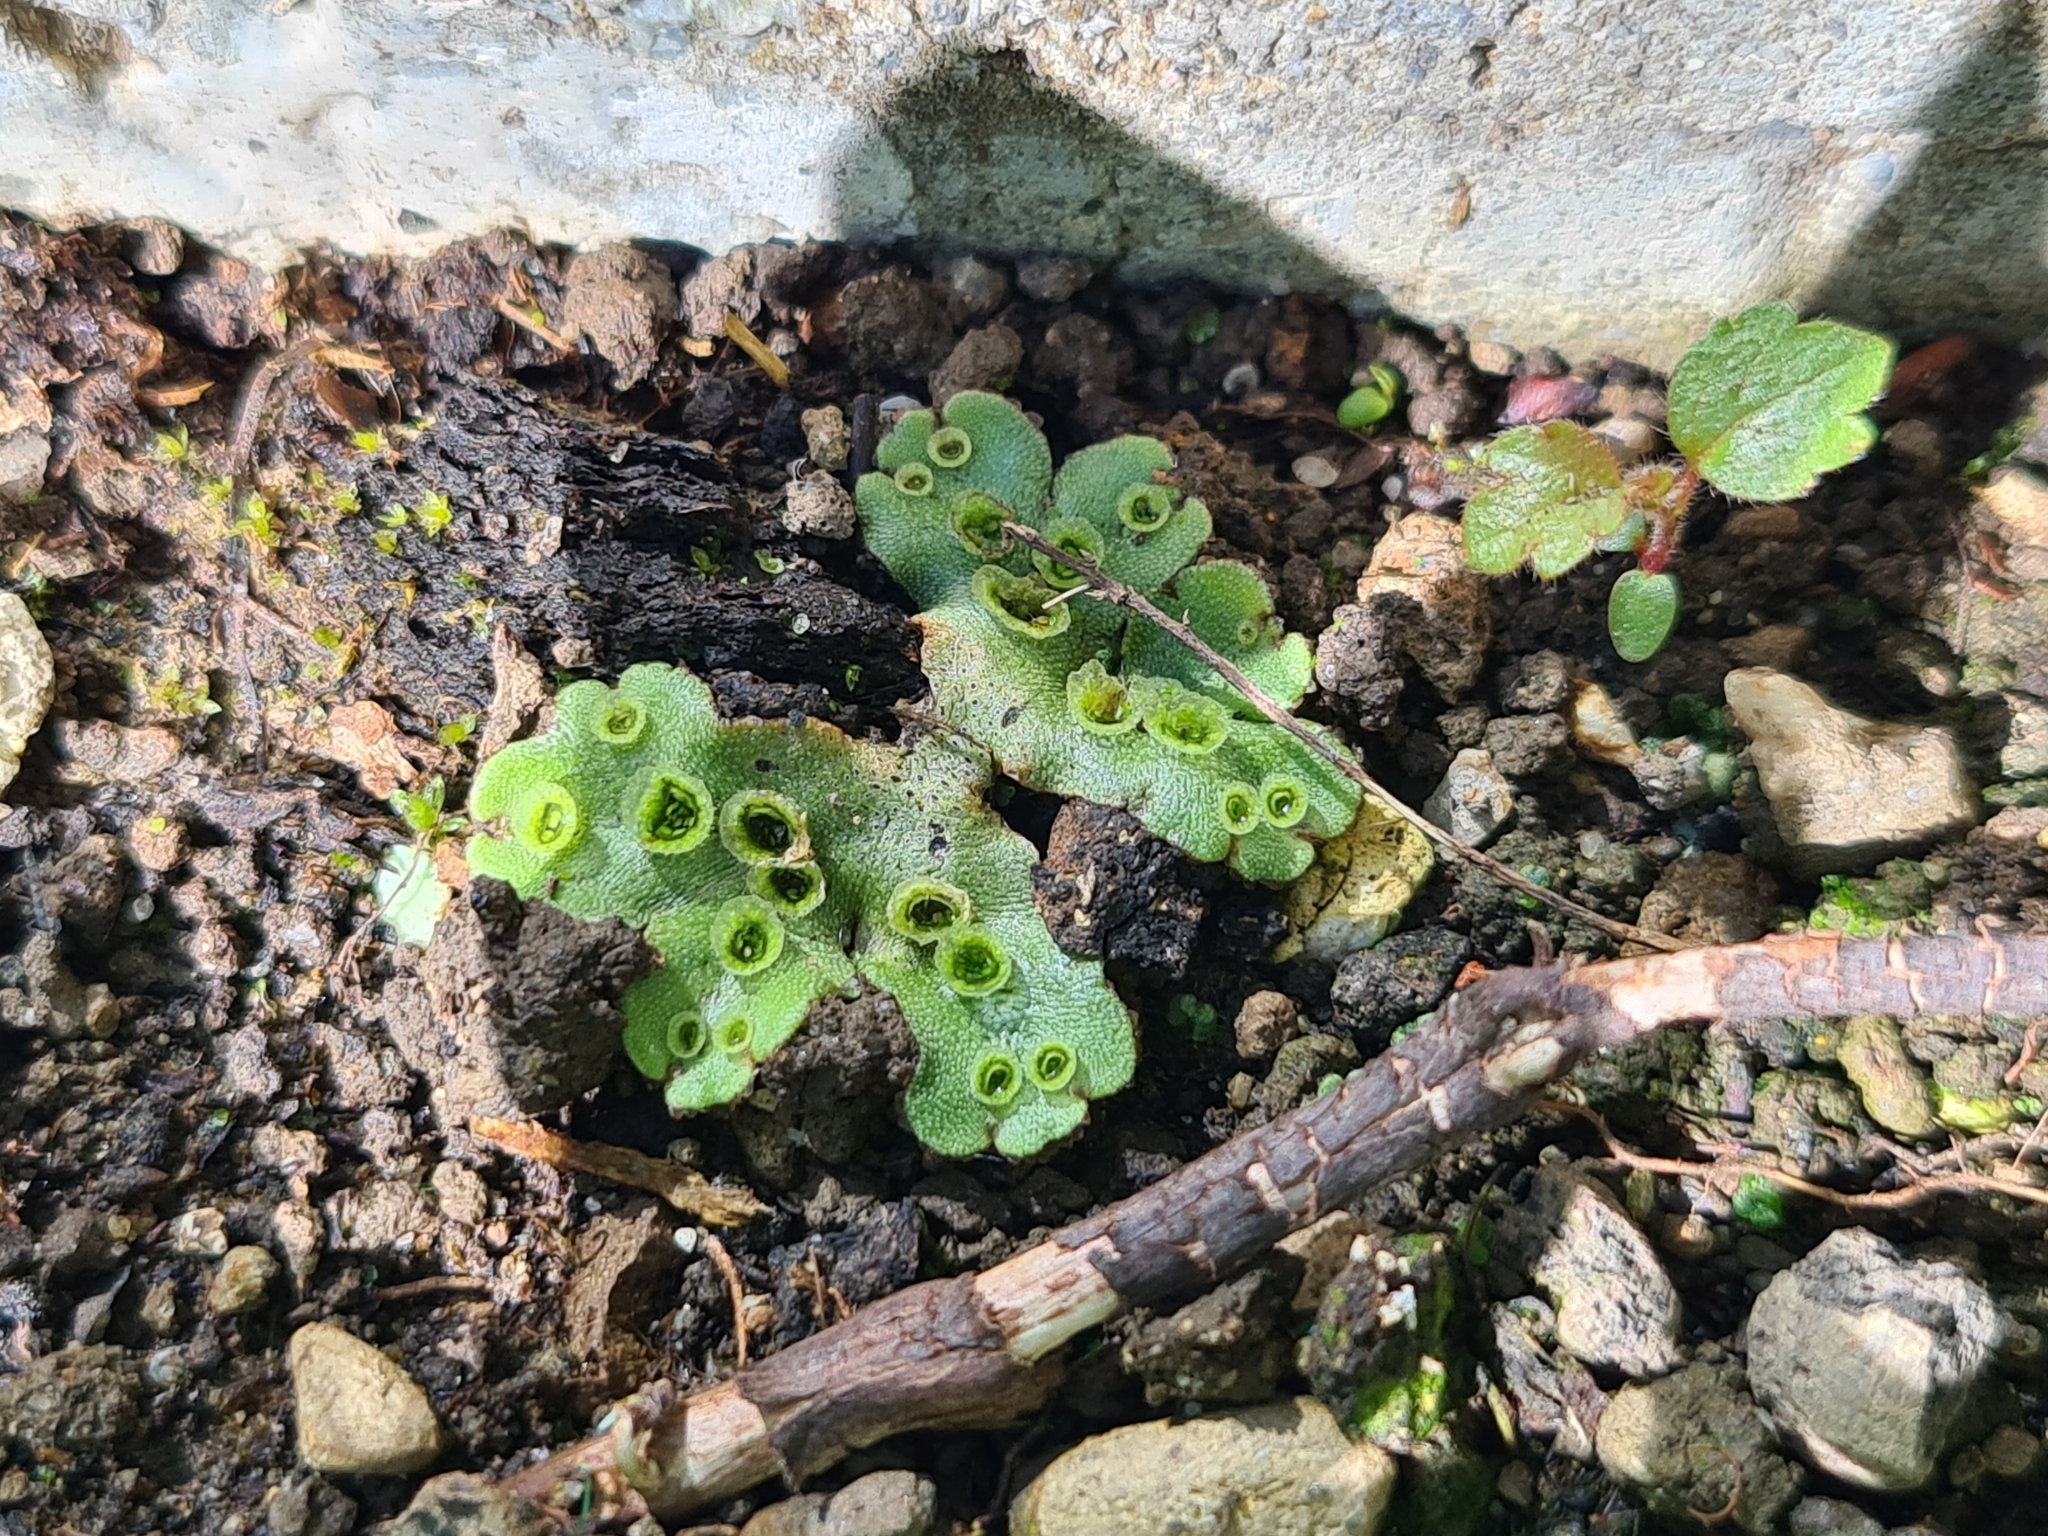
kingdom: Plantae
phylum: Marchantiophyta
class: Marchantiopsida
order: Marchantiales
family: Marchantiaceae
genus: Marchantia
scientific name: Marchantia polymorpha
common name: Common liverwort
